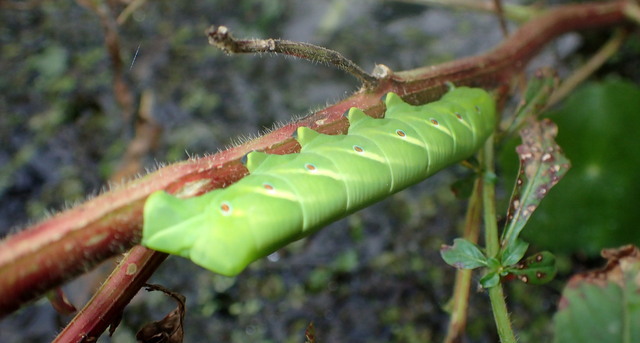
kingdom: Animalia
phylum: Arthropoda
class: Insecta
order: Lepidoptera
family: Sphingidae
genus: Eumorpha
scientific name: Eumorpha fasciatus
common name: Banded sphinx
